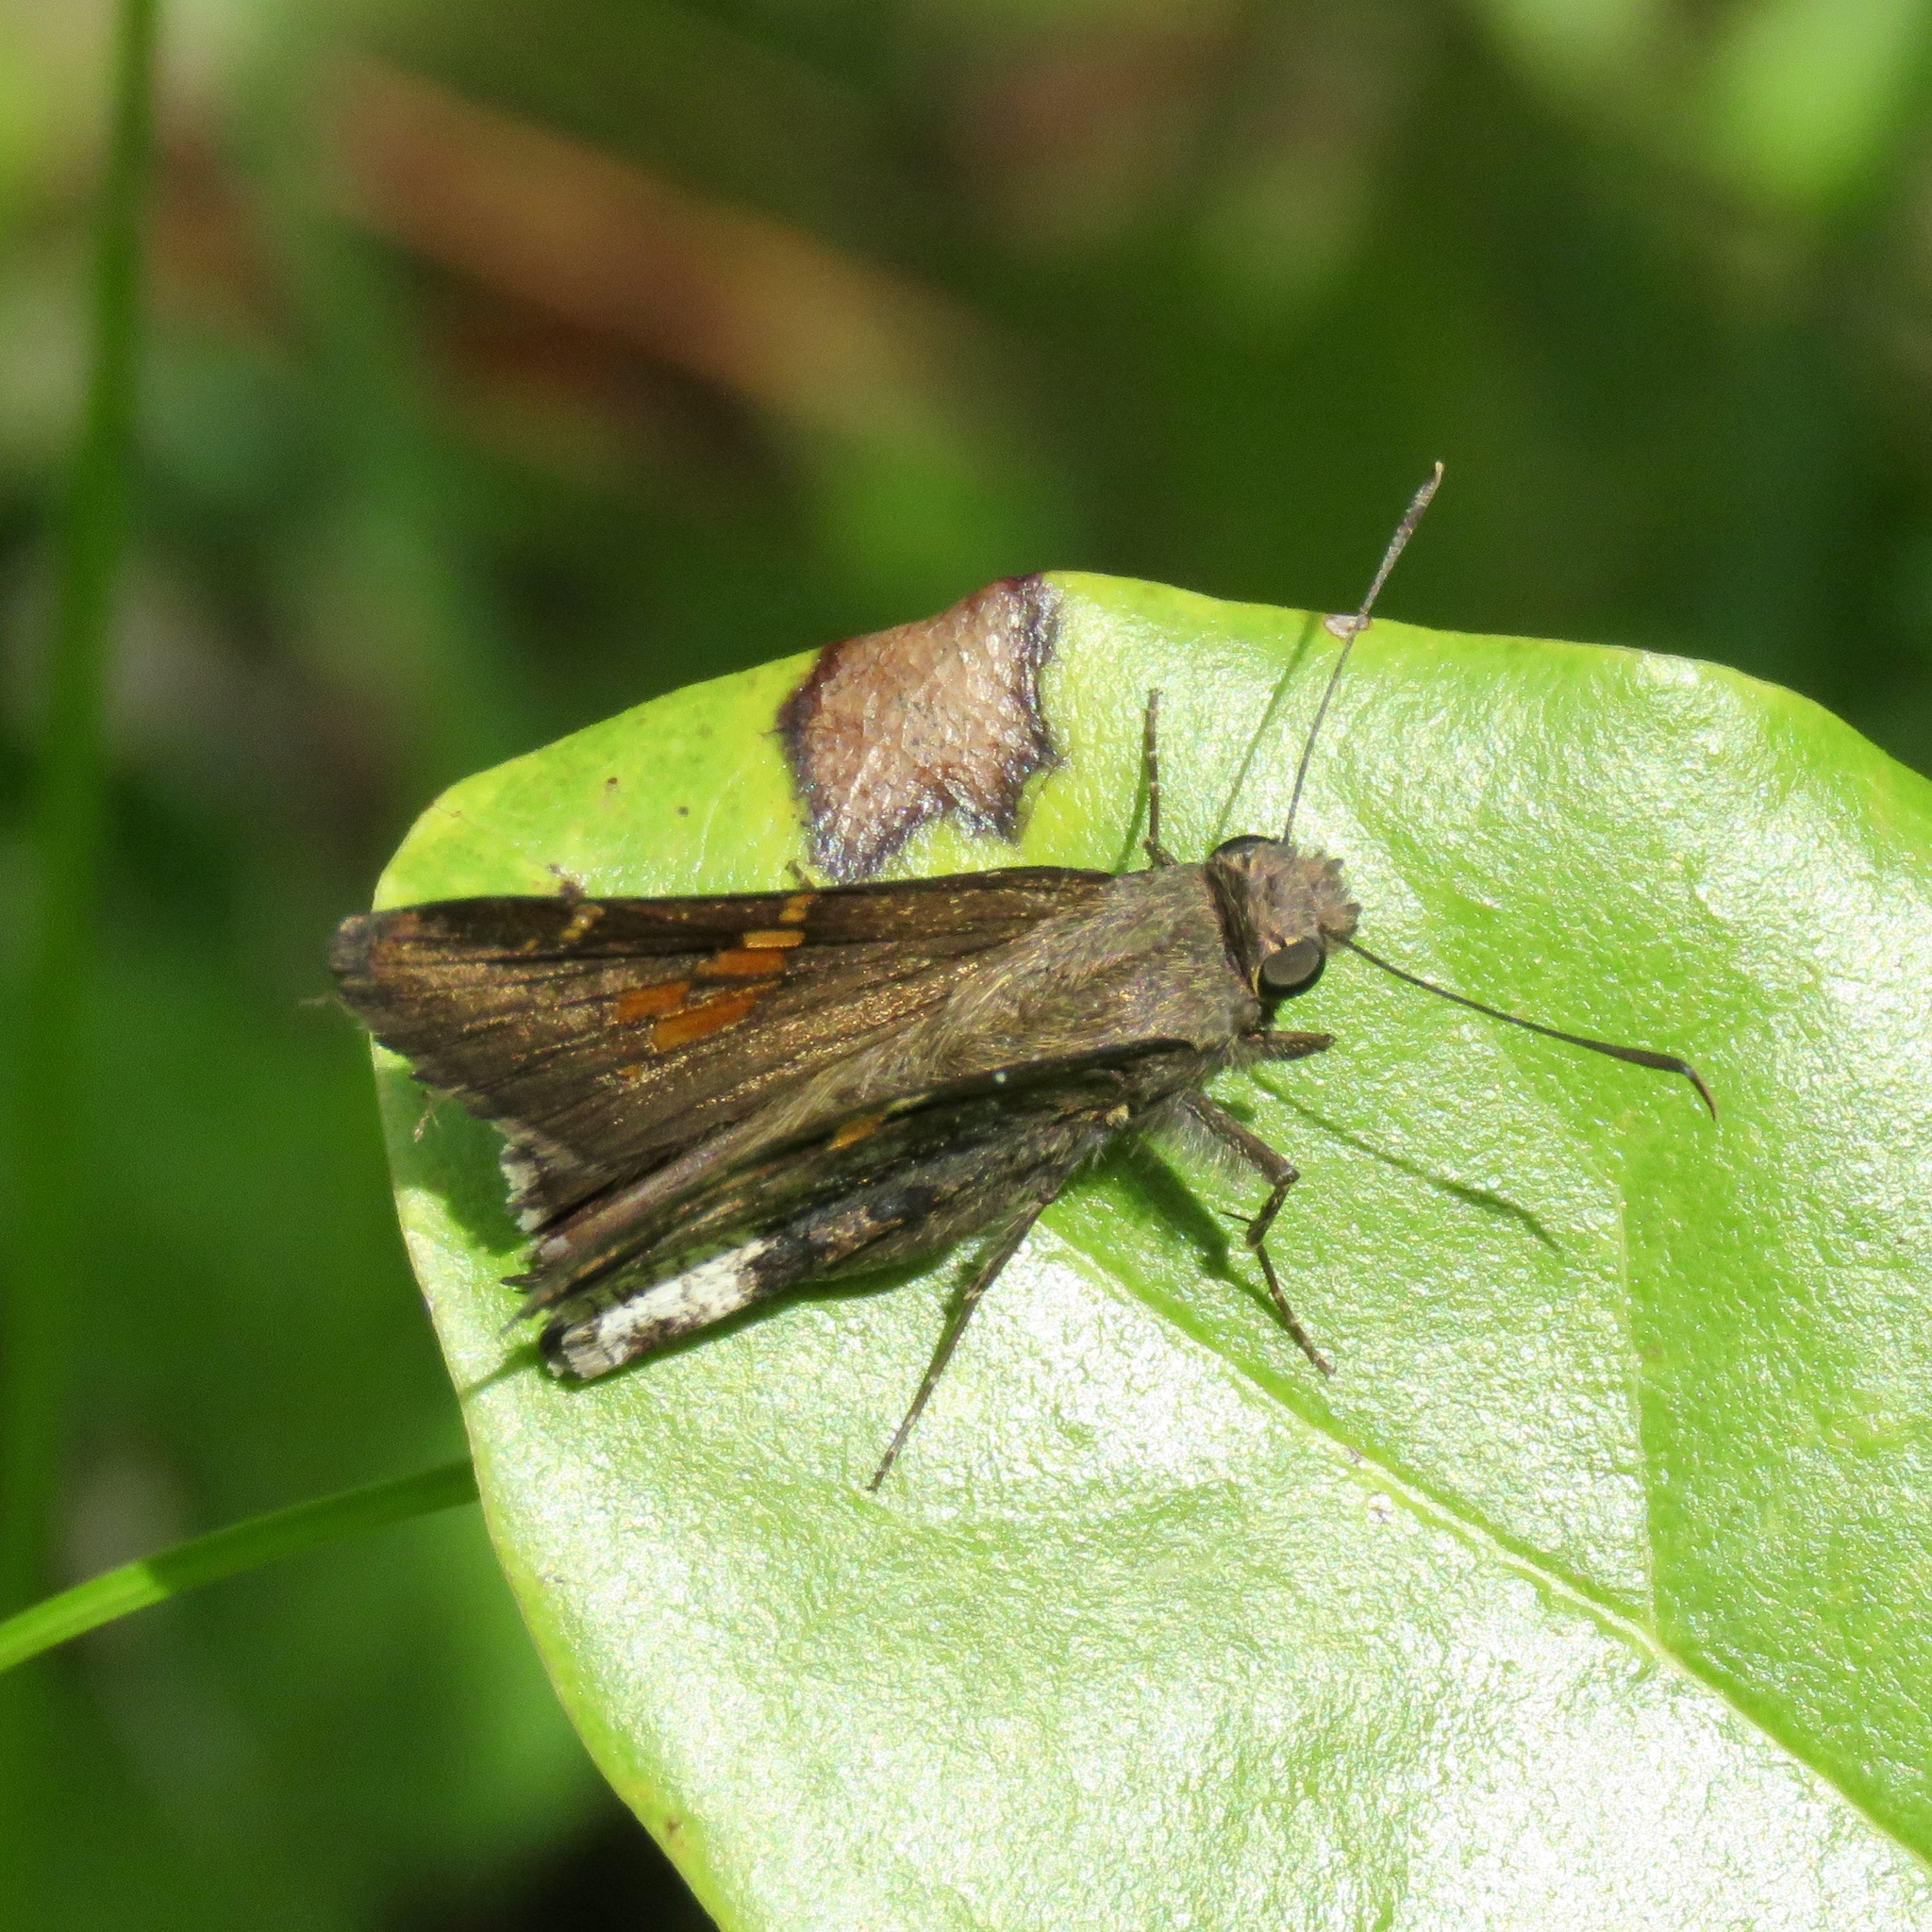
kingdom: Animalia
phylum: Arthropoda
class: Insecta
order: Lepidoptera
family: Hesperiidae
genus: Thorybes
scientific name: Thorybes lyciades
